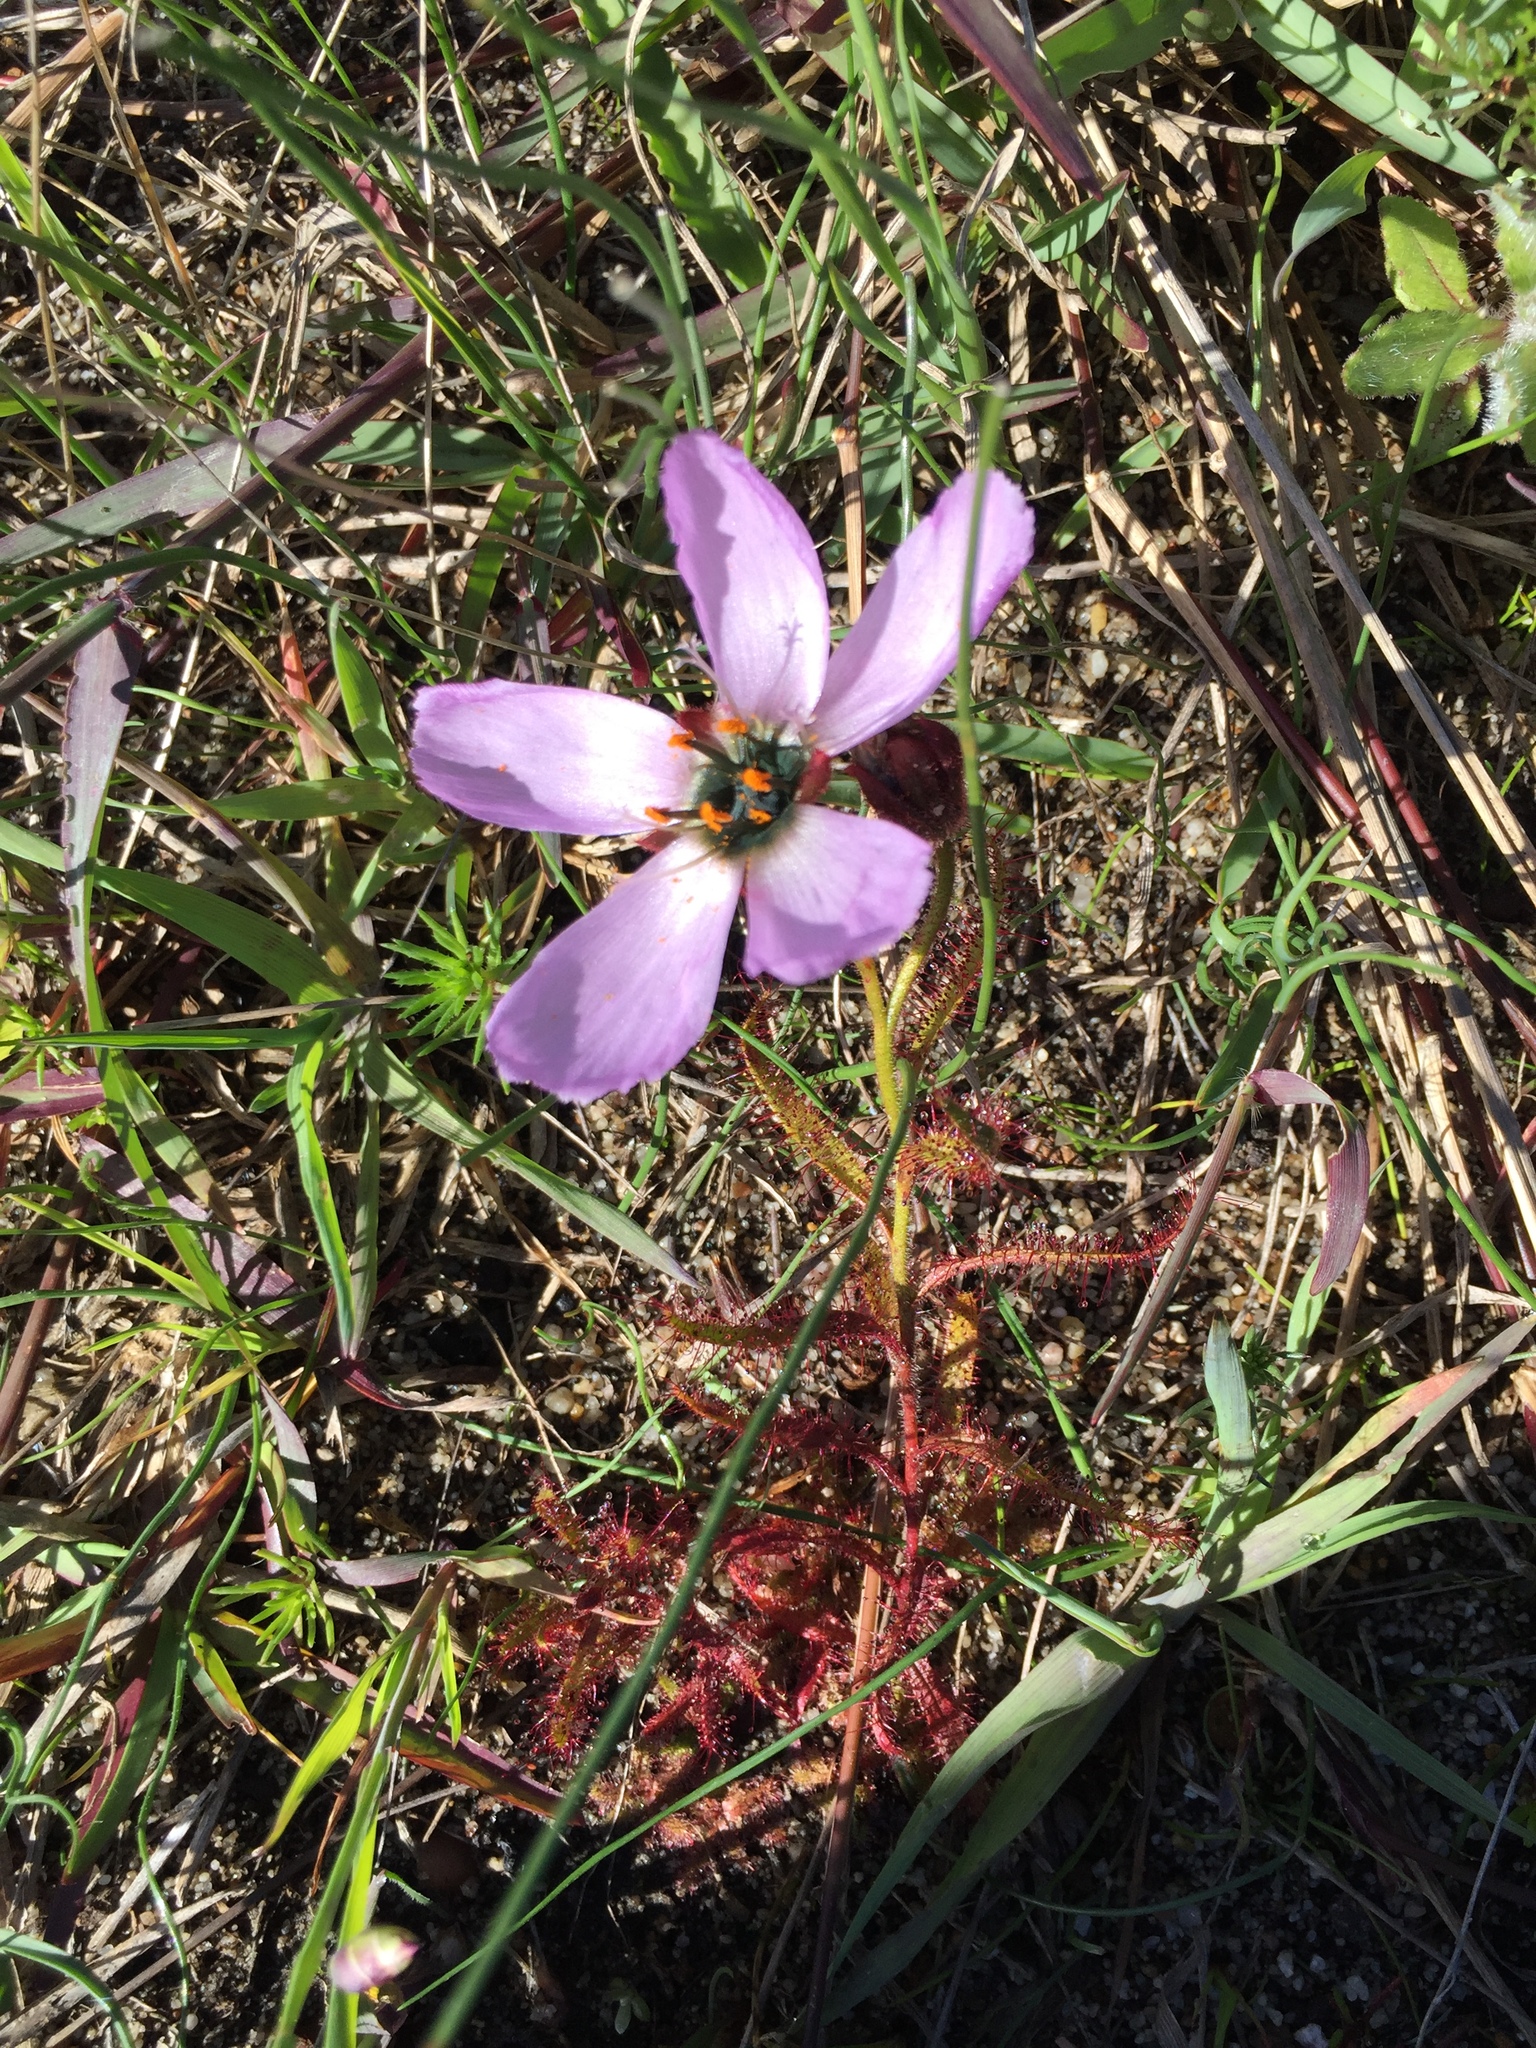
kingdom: Plantae
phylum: Tracheophyta
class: Magnoliopsida
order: Caryophyllales
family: Droseraceae
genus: Drosera
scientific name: Drosera cistiflora
